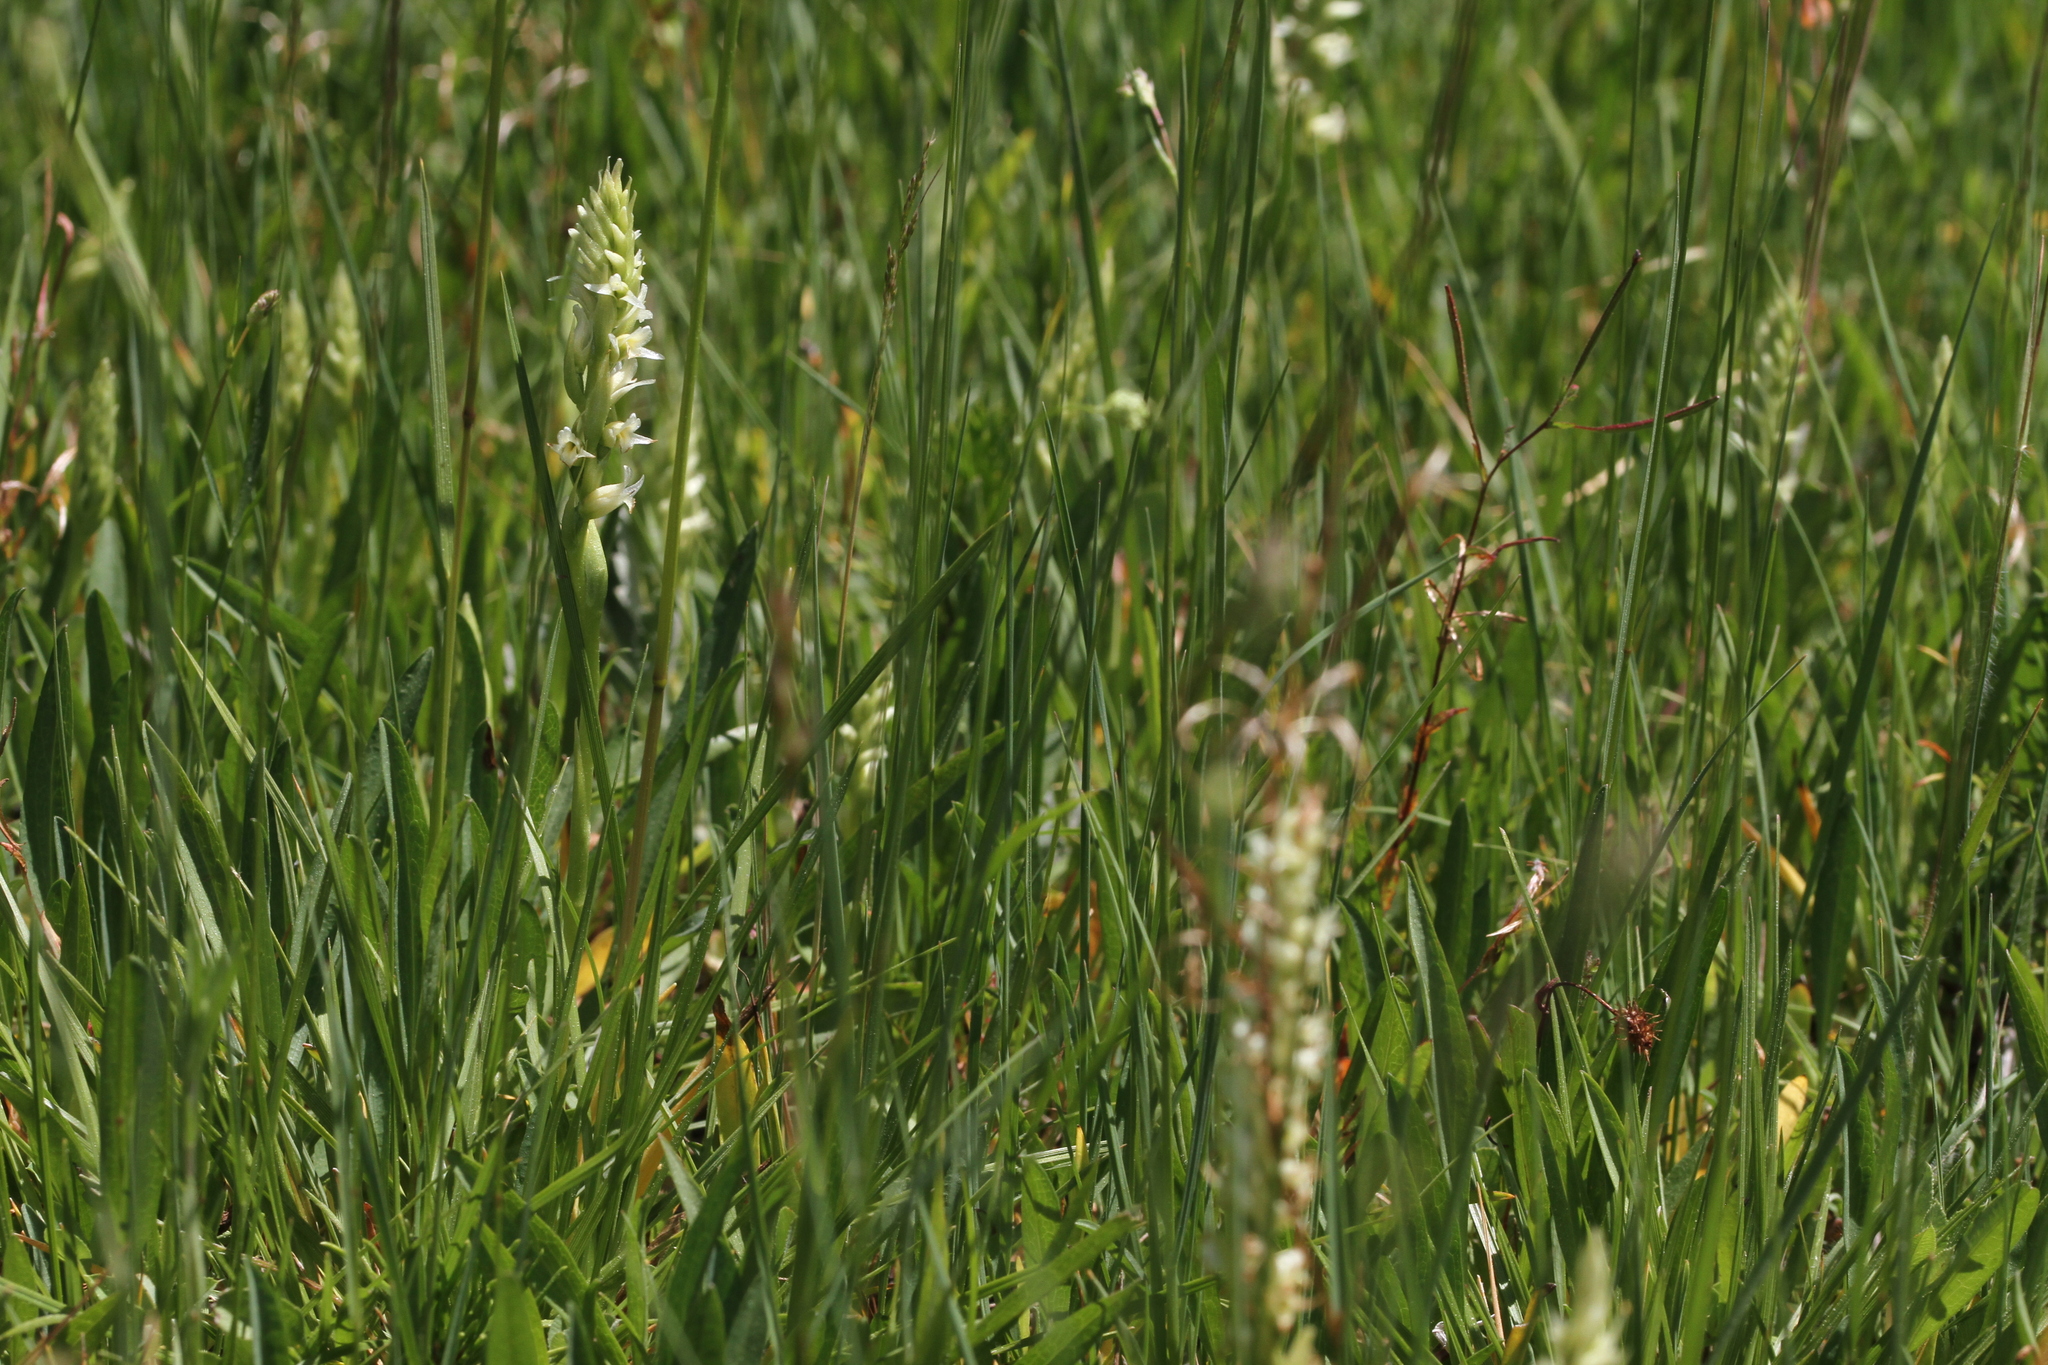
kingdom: Plantae
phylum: Tracheophyta
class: Liliopsida
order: Asparagales
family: Orchidaceae
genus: Spiranthes
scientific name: Spiranthes stellata
